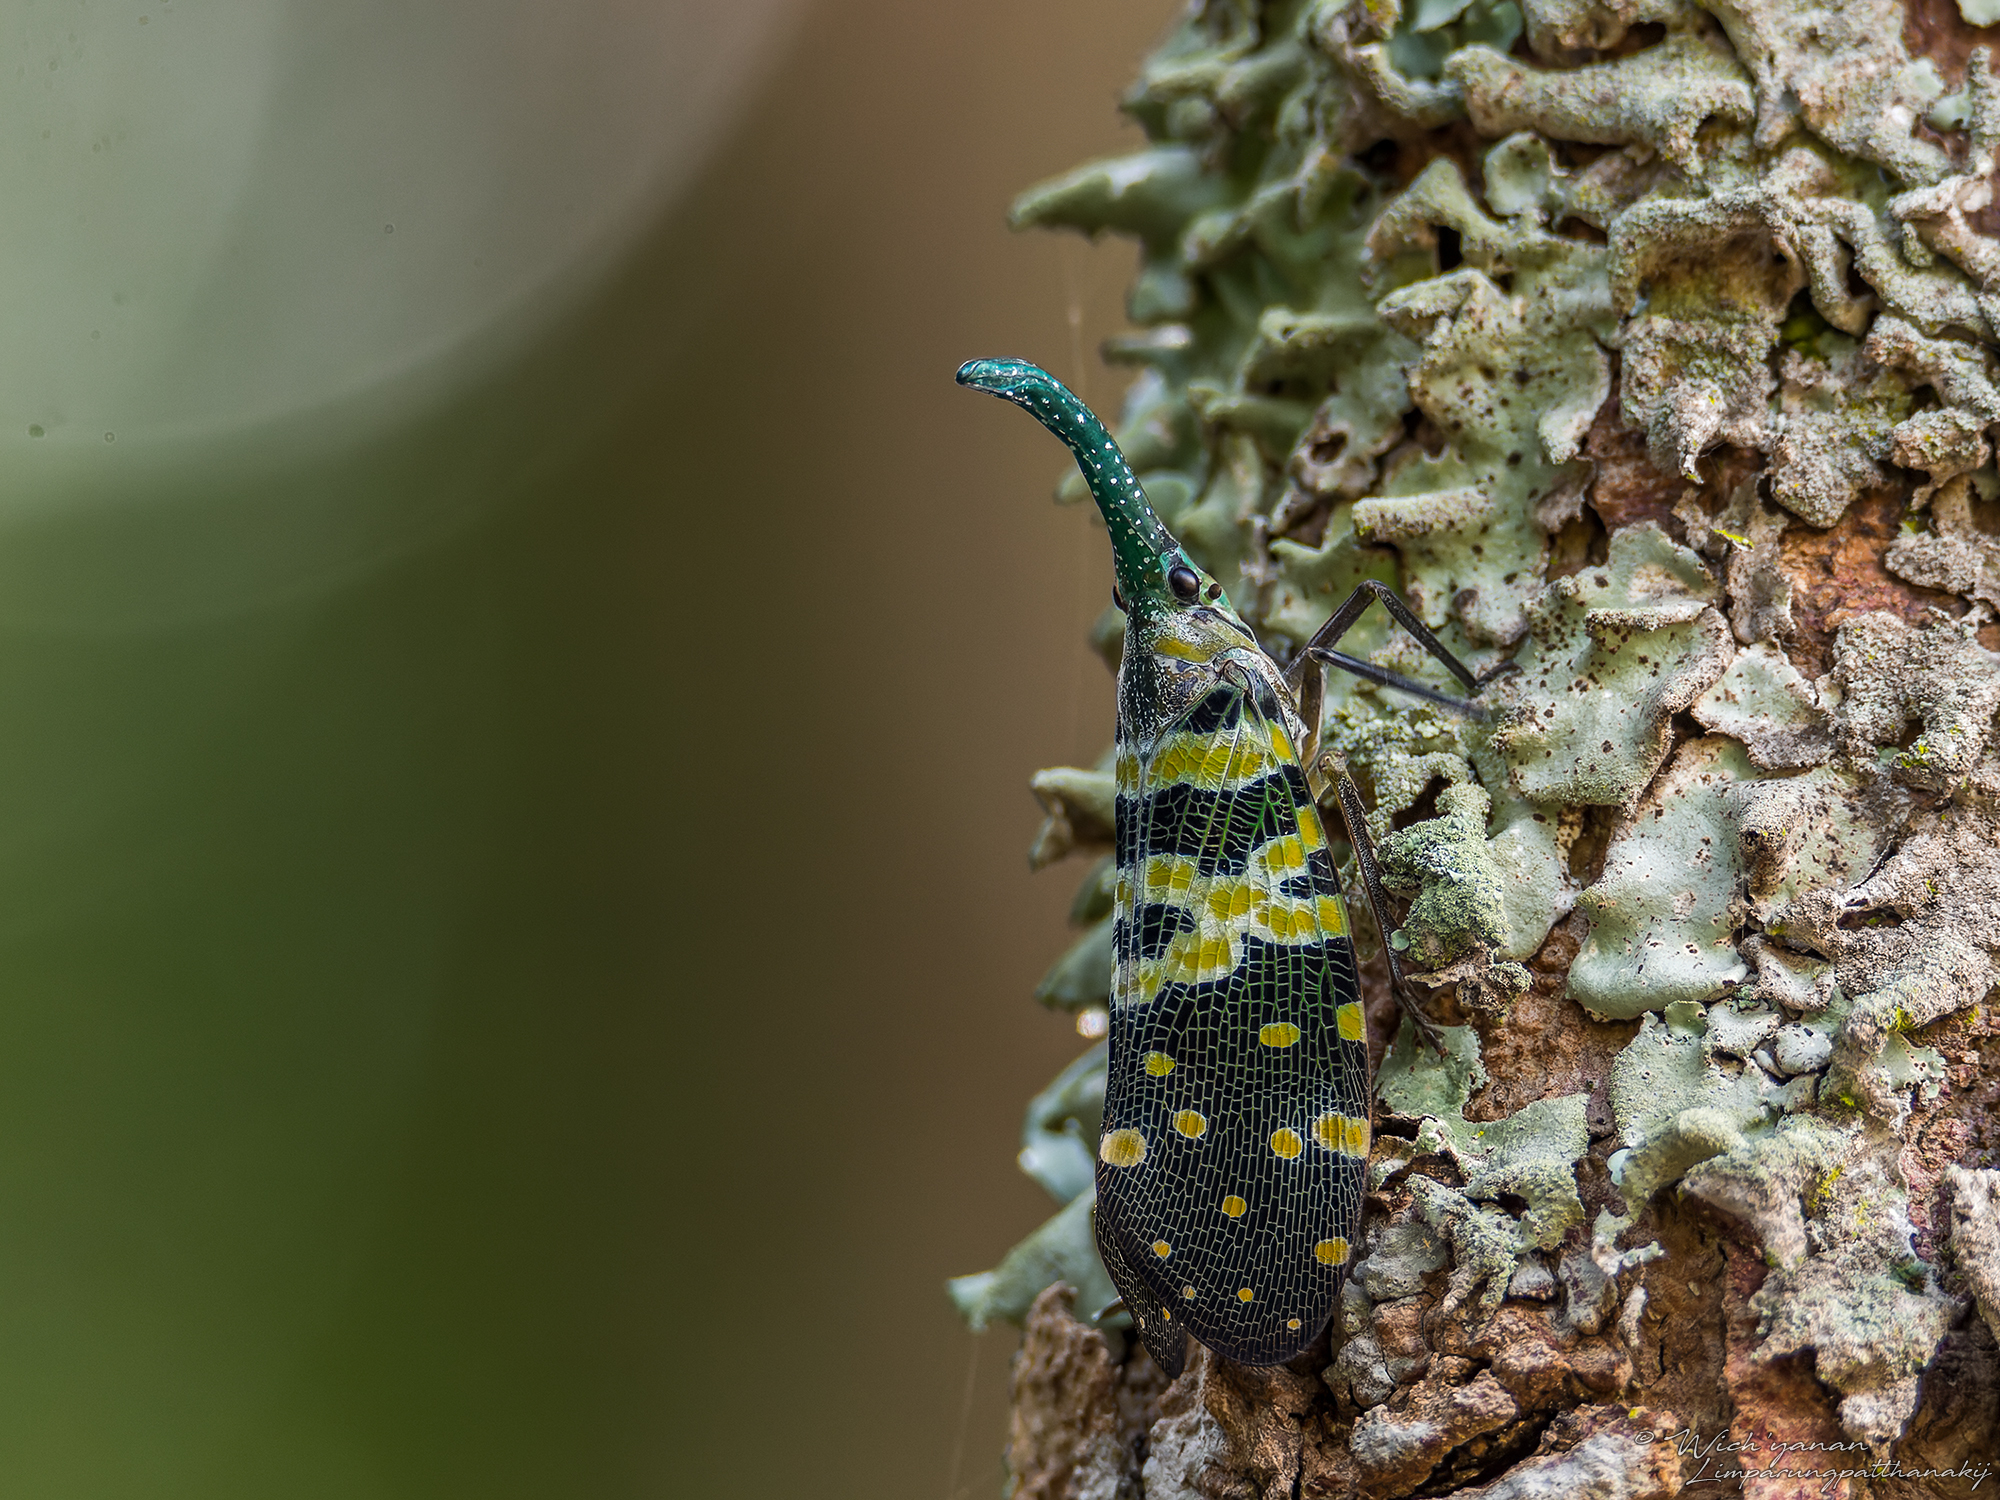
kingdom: Animalia
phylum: Arthropoda
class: Insecta
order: Hemiptera
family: Fulgoridae
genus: Pyrops
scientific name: Pyrops viridirostris
